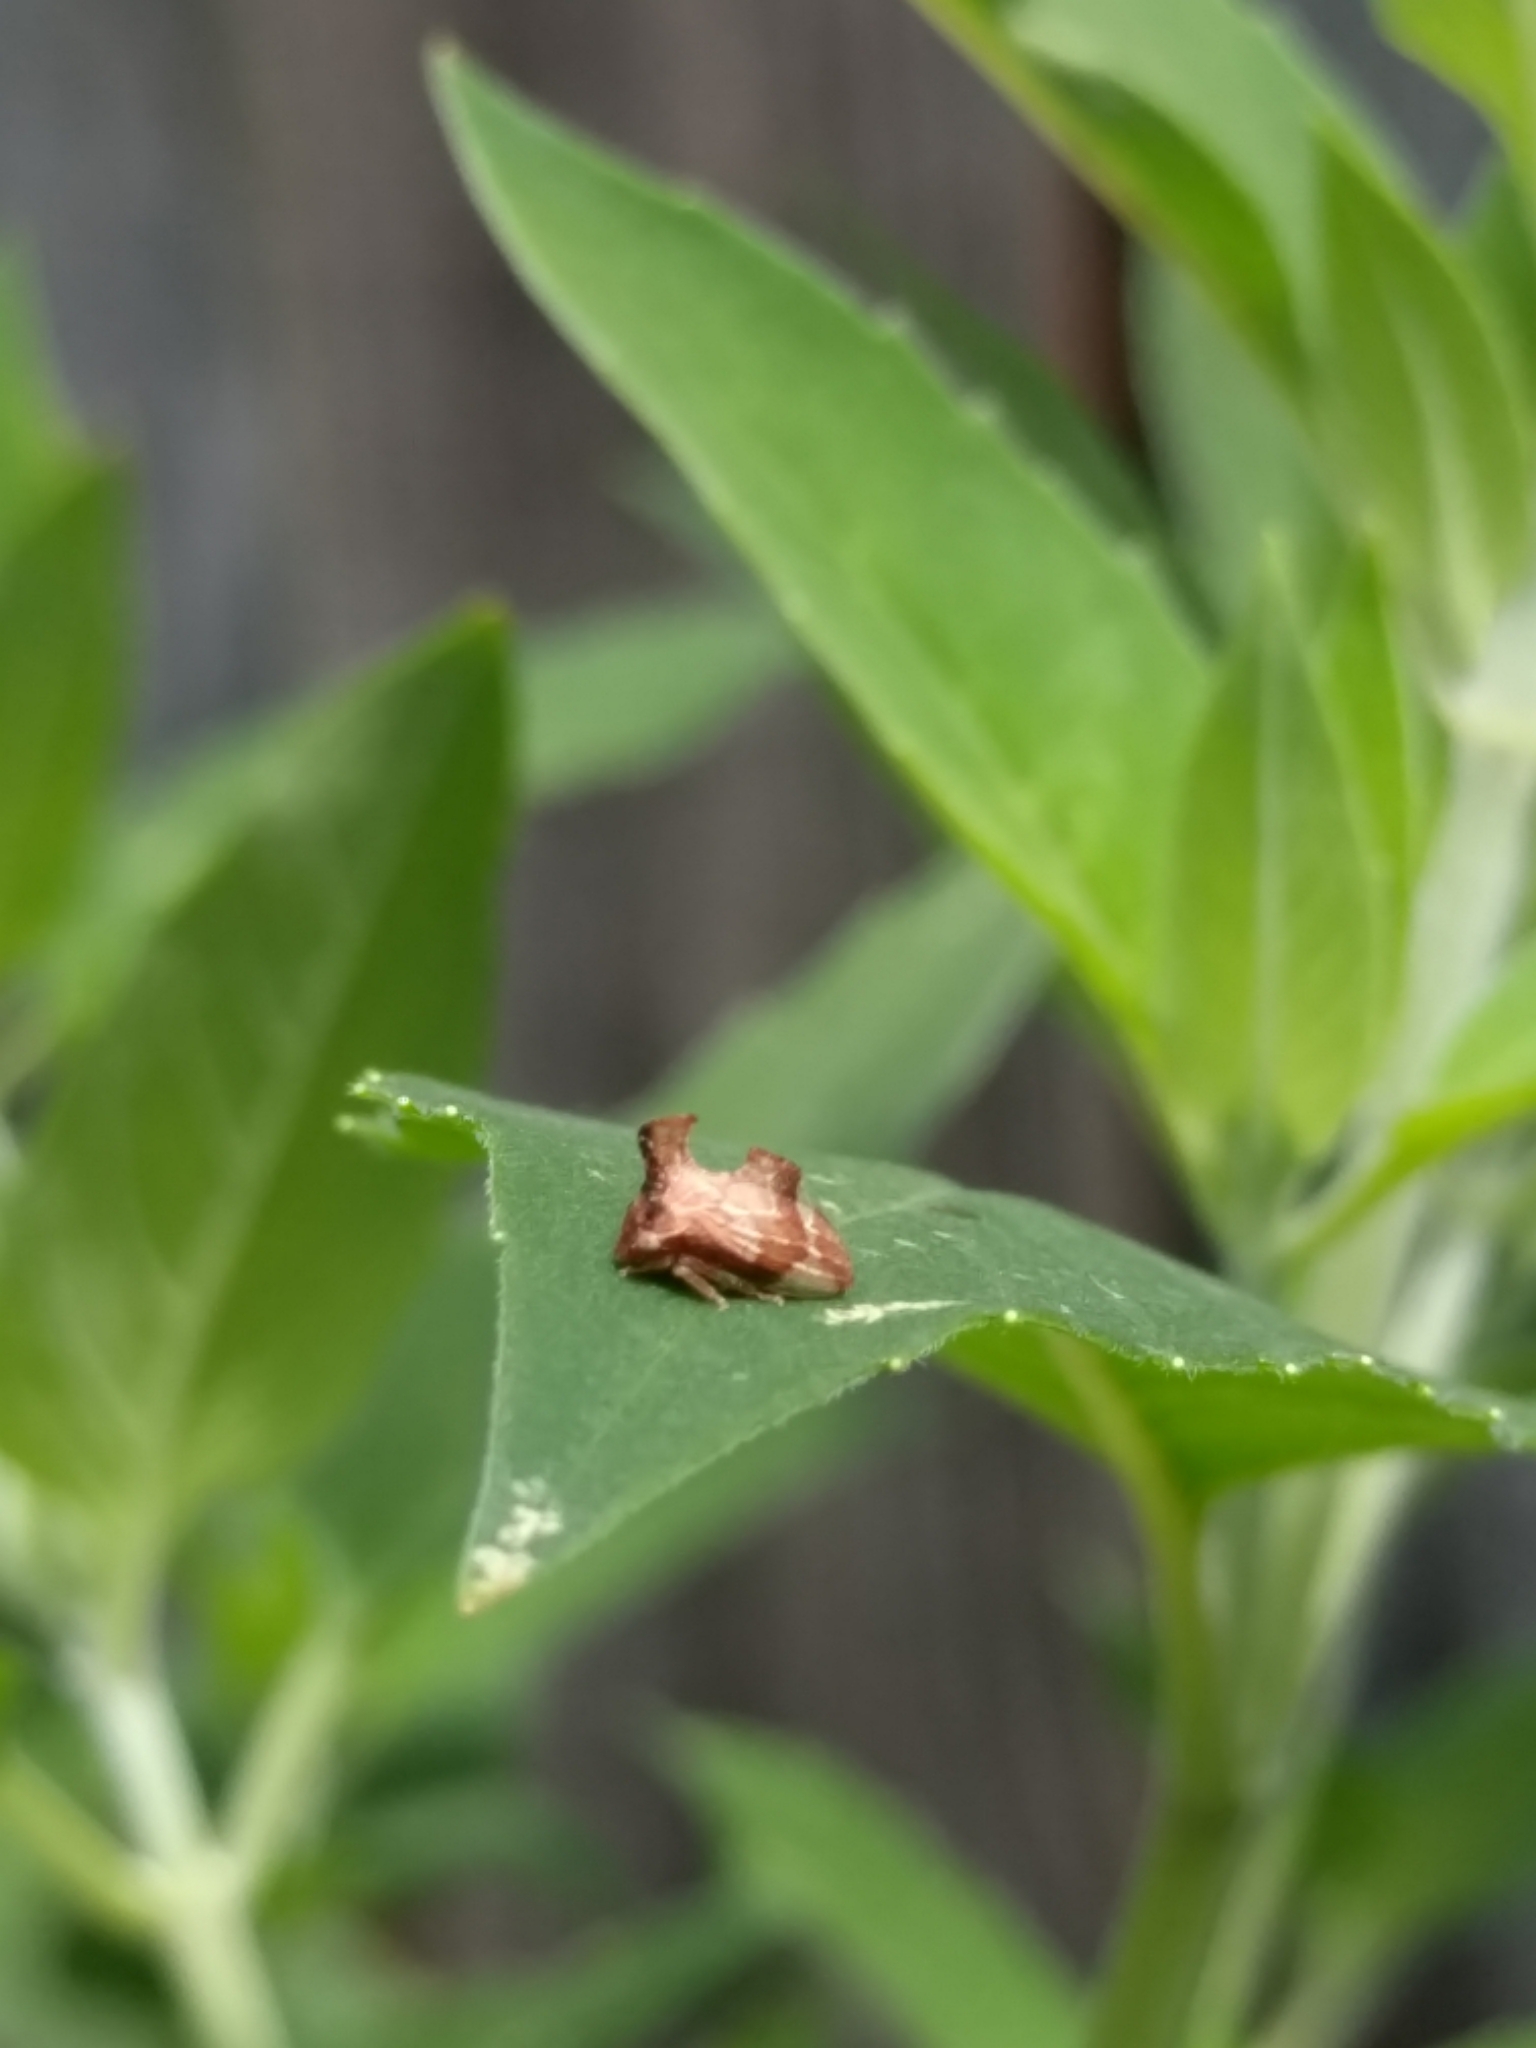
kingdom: Animalia
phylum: Arthropoda
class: Insecta
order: Hemiptera
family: Membracidae
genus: Entylia
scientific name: Entylia carinata
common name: Keeled treehopper
